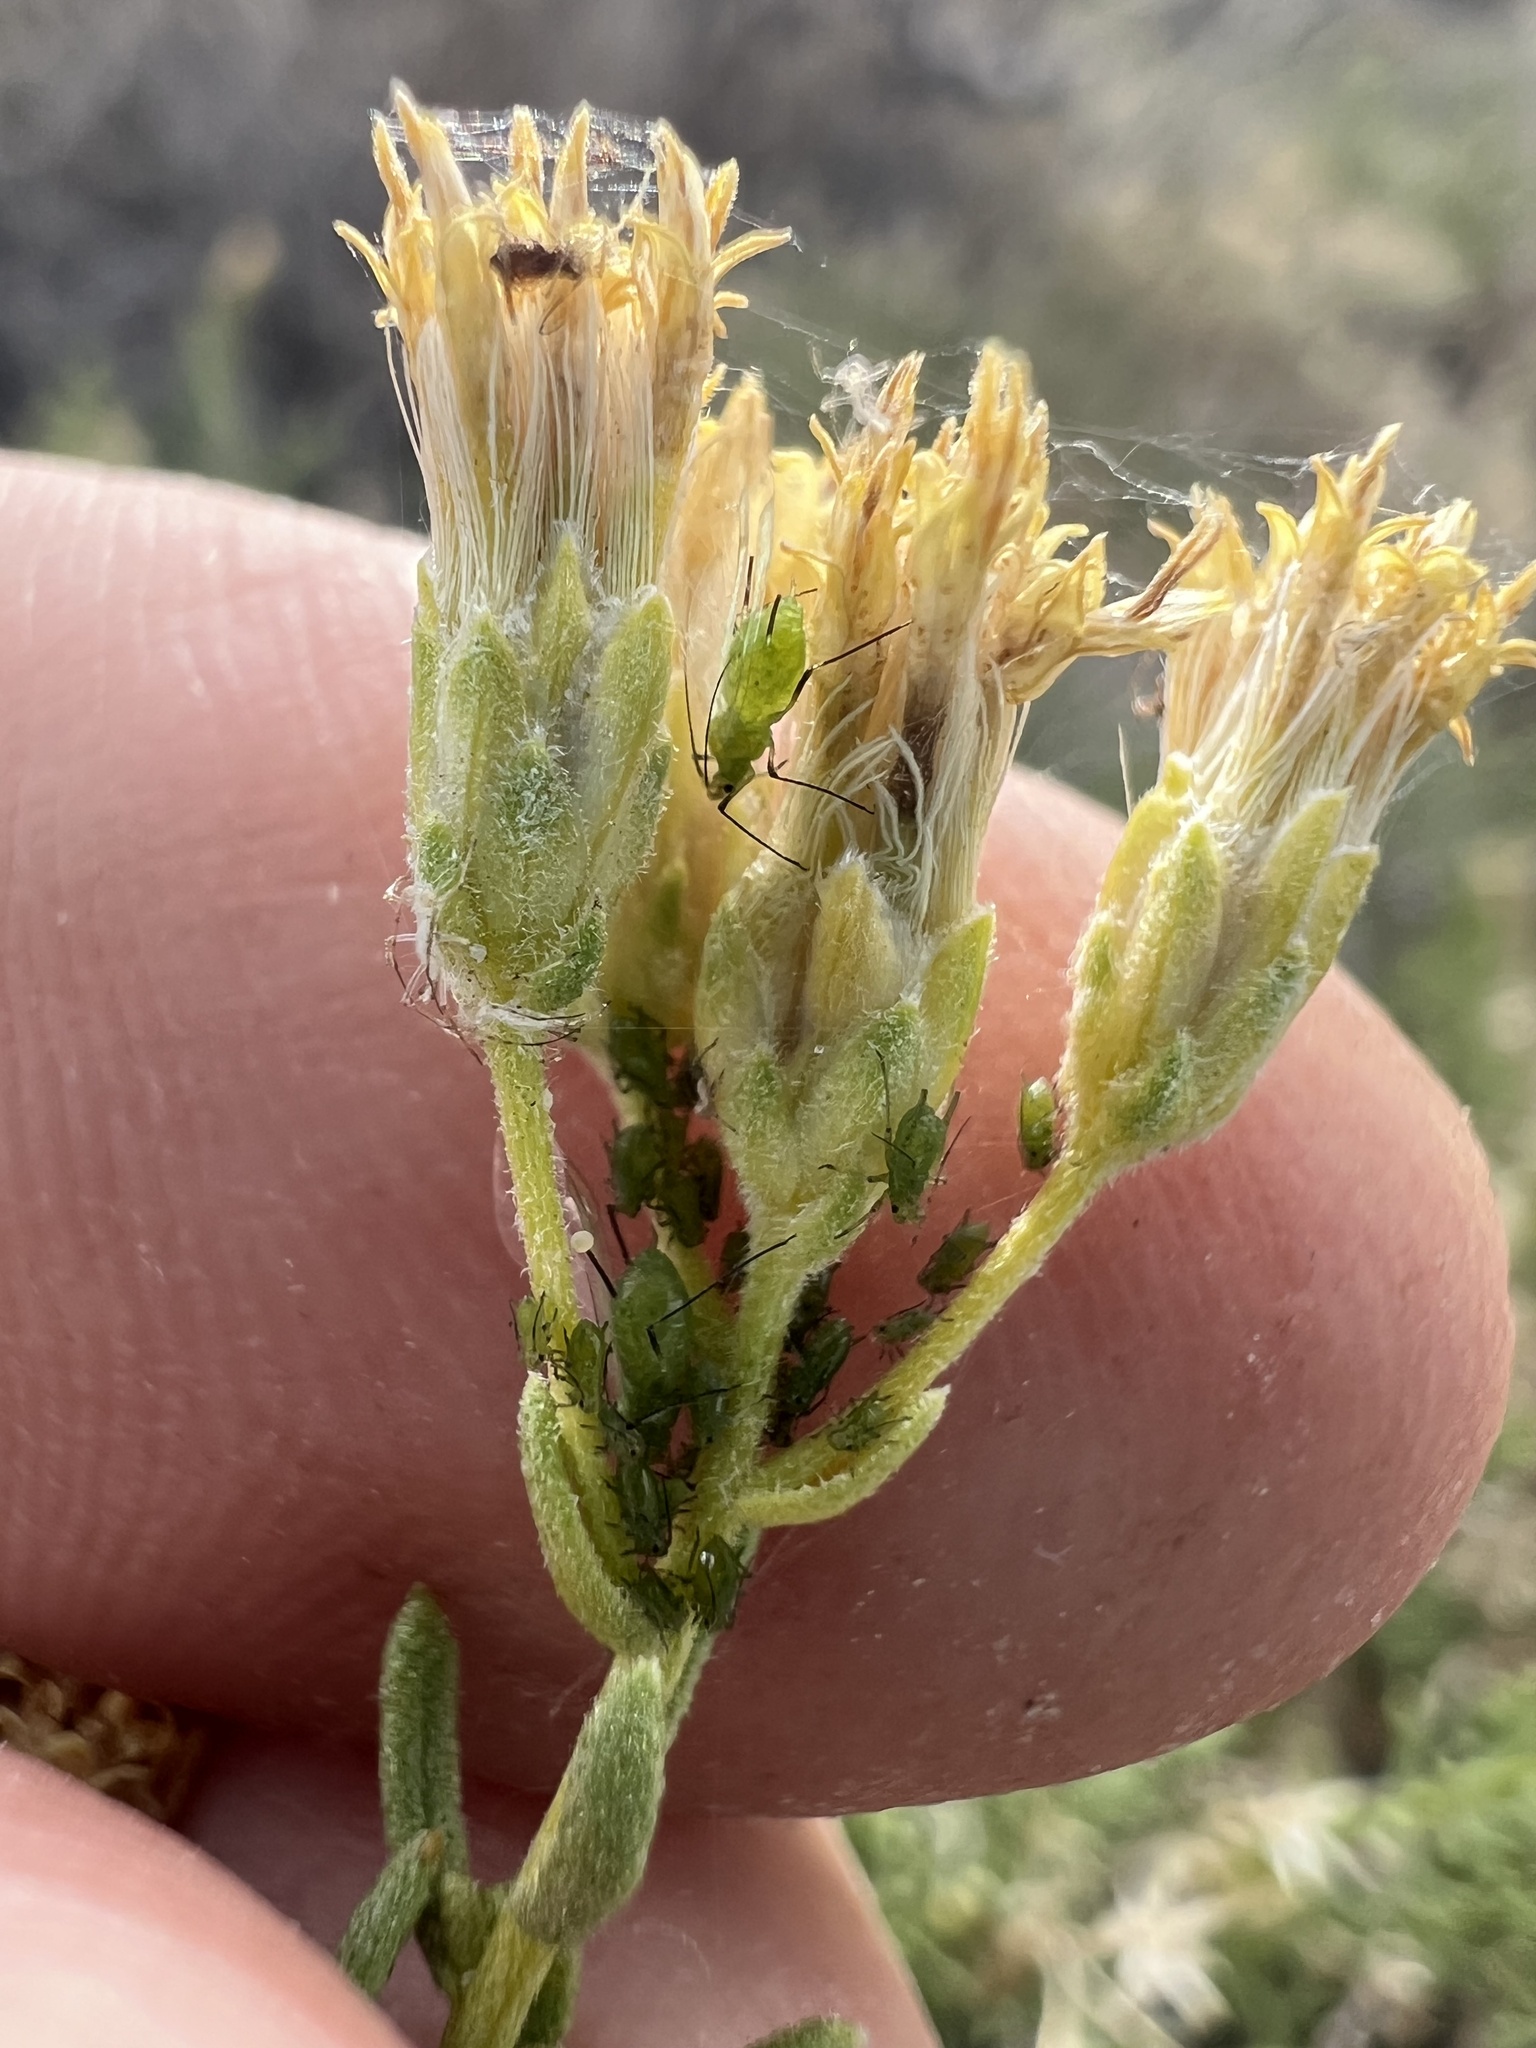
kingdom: Plantae
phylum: Tracheophyta
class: Magnoliopsida
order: Asterales
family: Asteraceae
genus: Ericameria
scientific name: Ericameria cooperi
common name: Cooper's goldenbush
